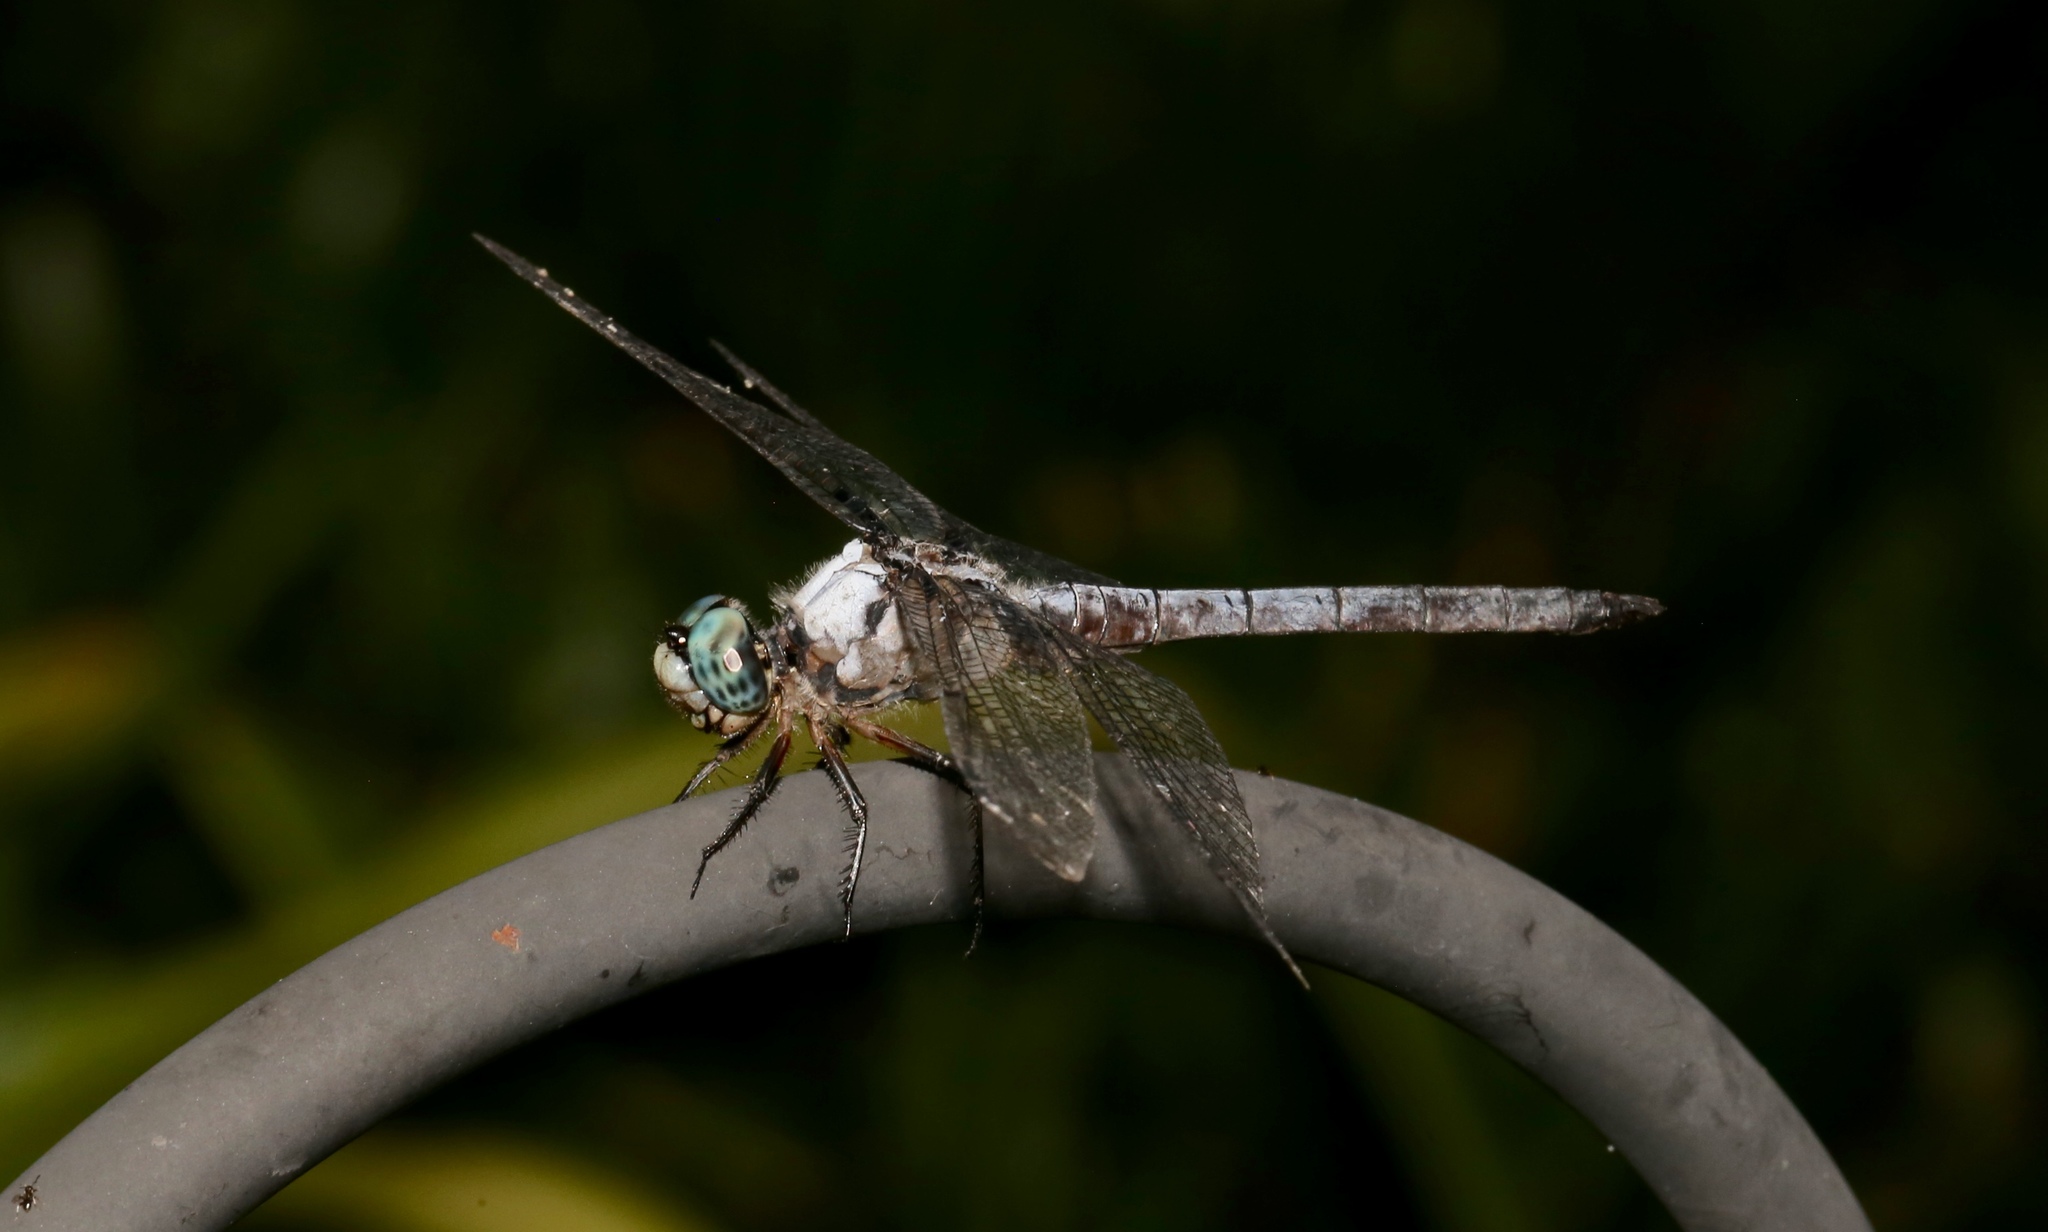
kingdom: Animalia
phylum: Arthropoda
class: Insecta
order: Odonata
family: Libellulidae
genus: Libellula
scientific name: Libellula vibrans
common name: Great blue skimmer
